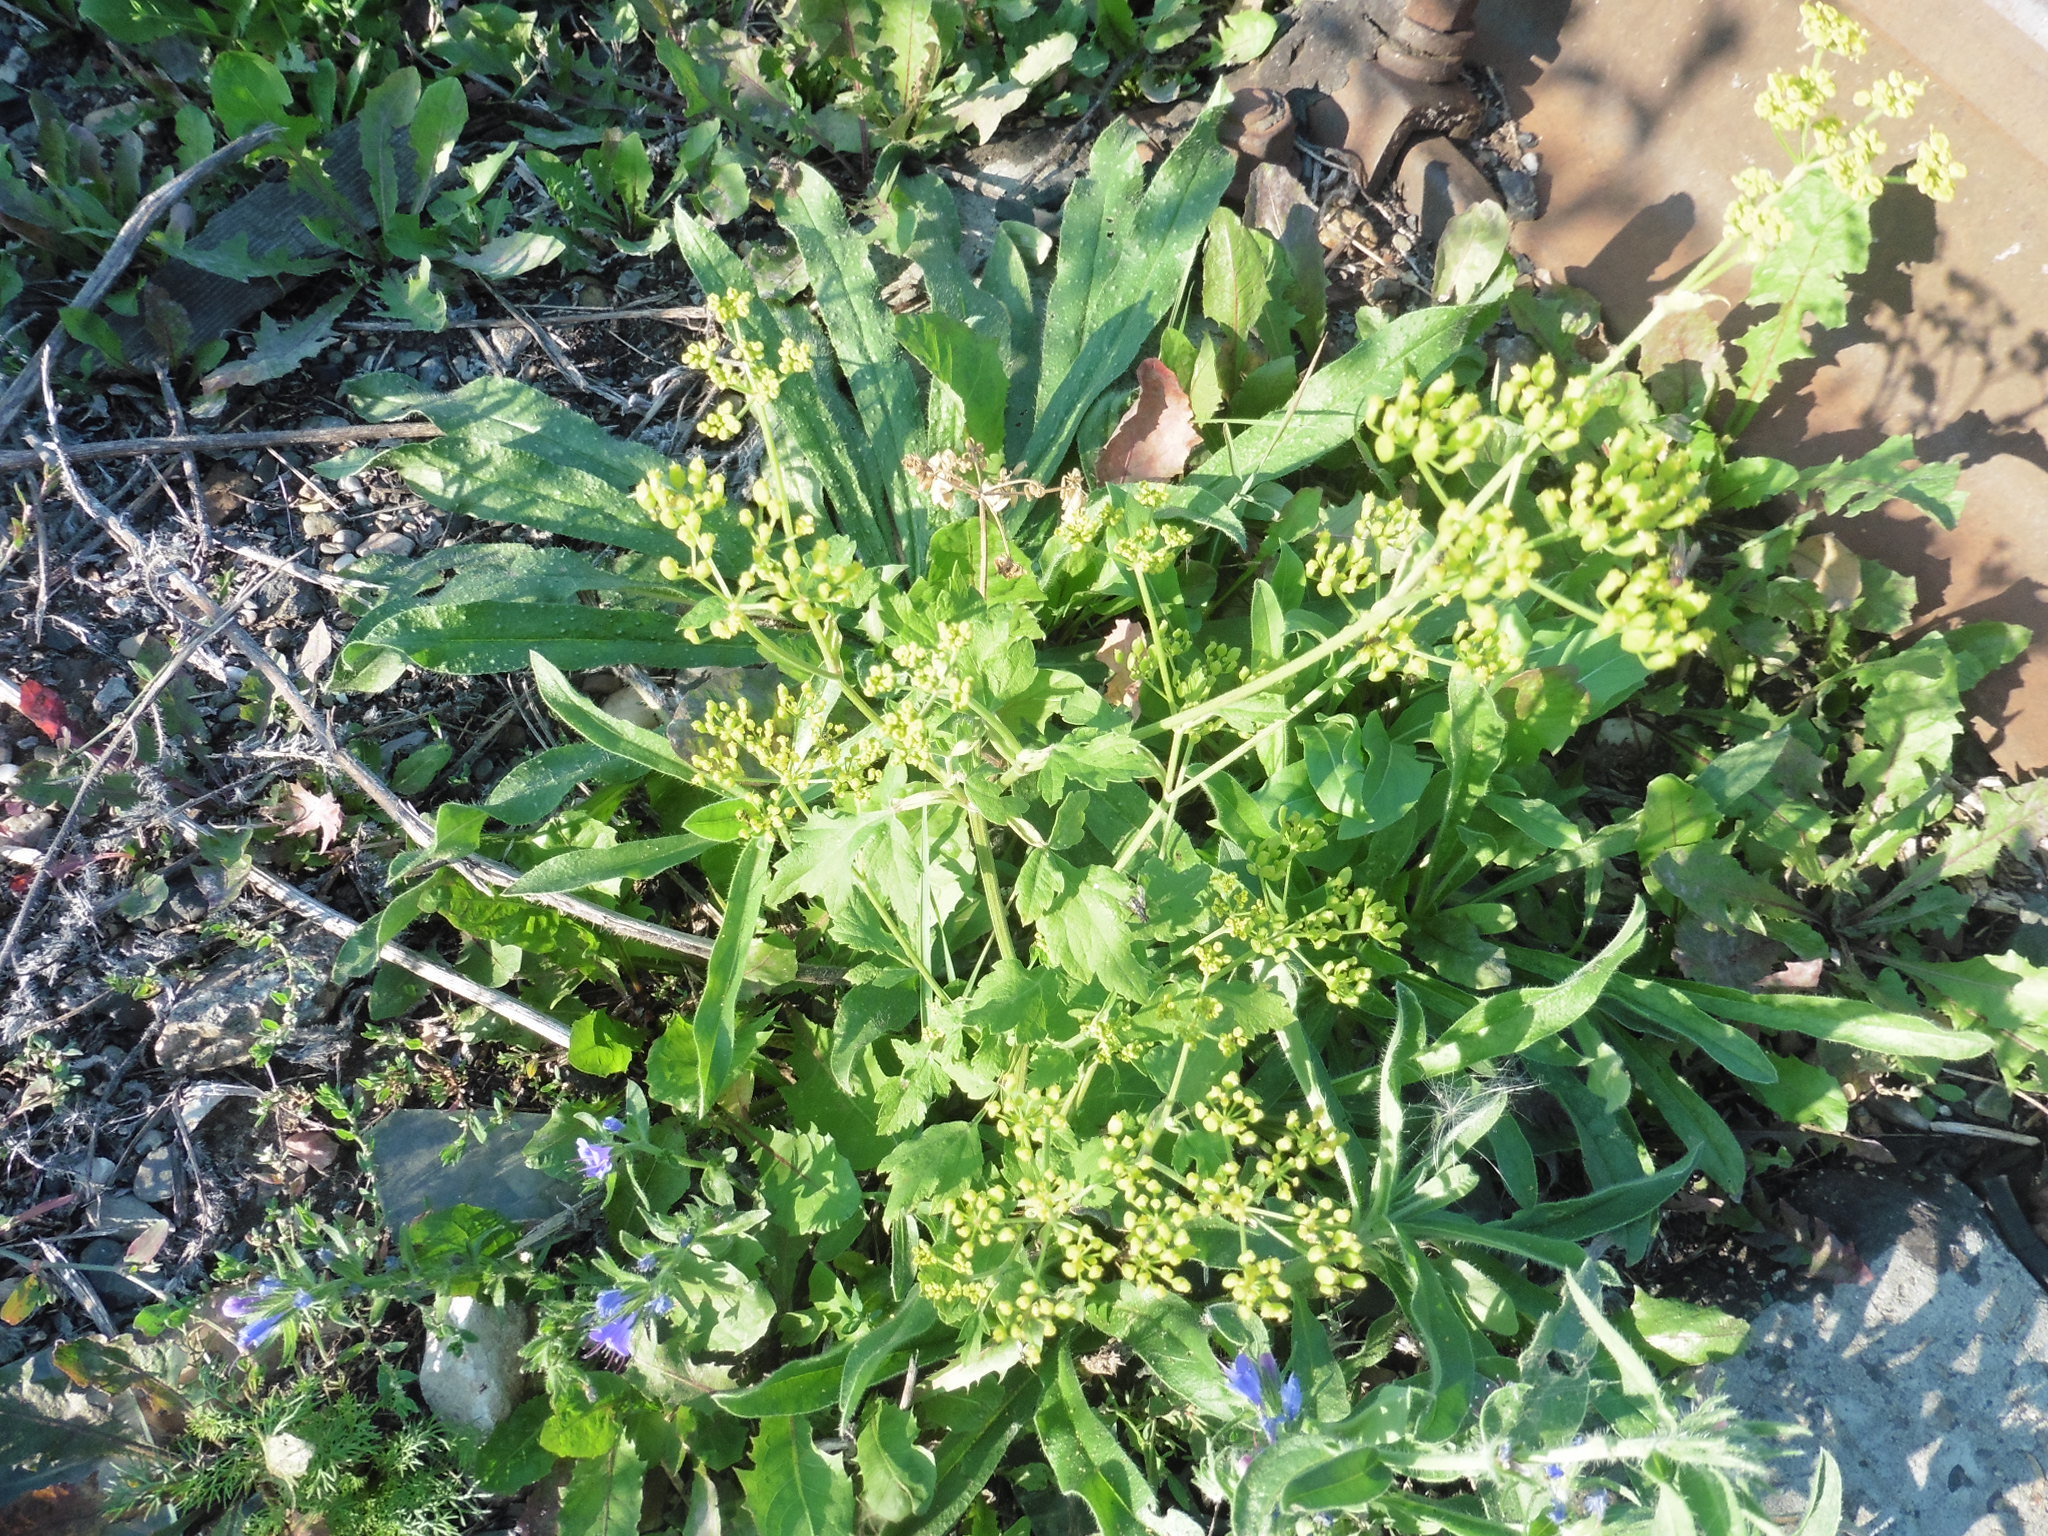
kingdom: Plantae
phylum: Tracheophyta
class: Magnoliopsida
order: Apiales
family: Apiaceae
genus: Pastinaca
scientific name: Pastinaca sativa
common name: Wild parsnip
